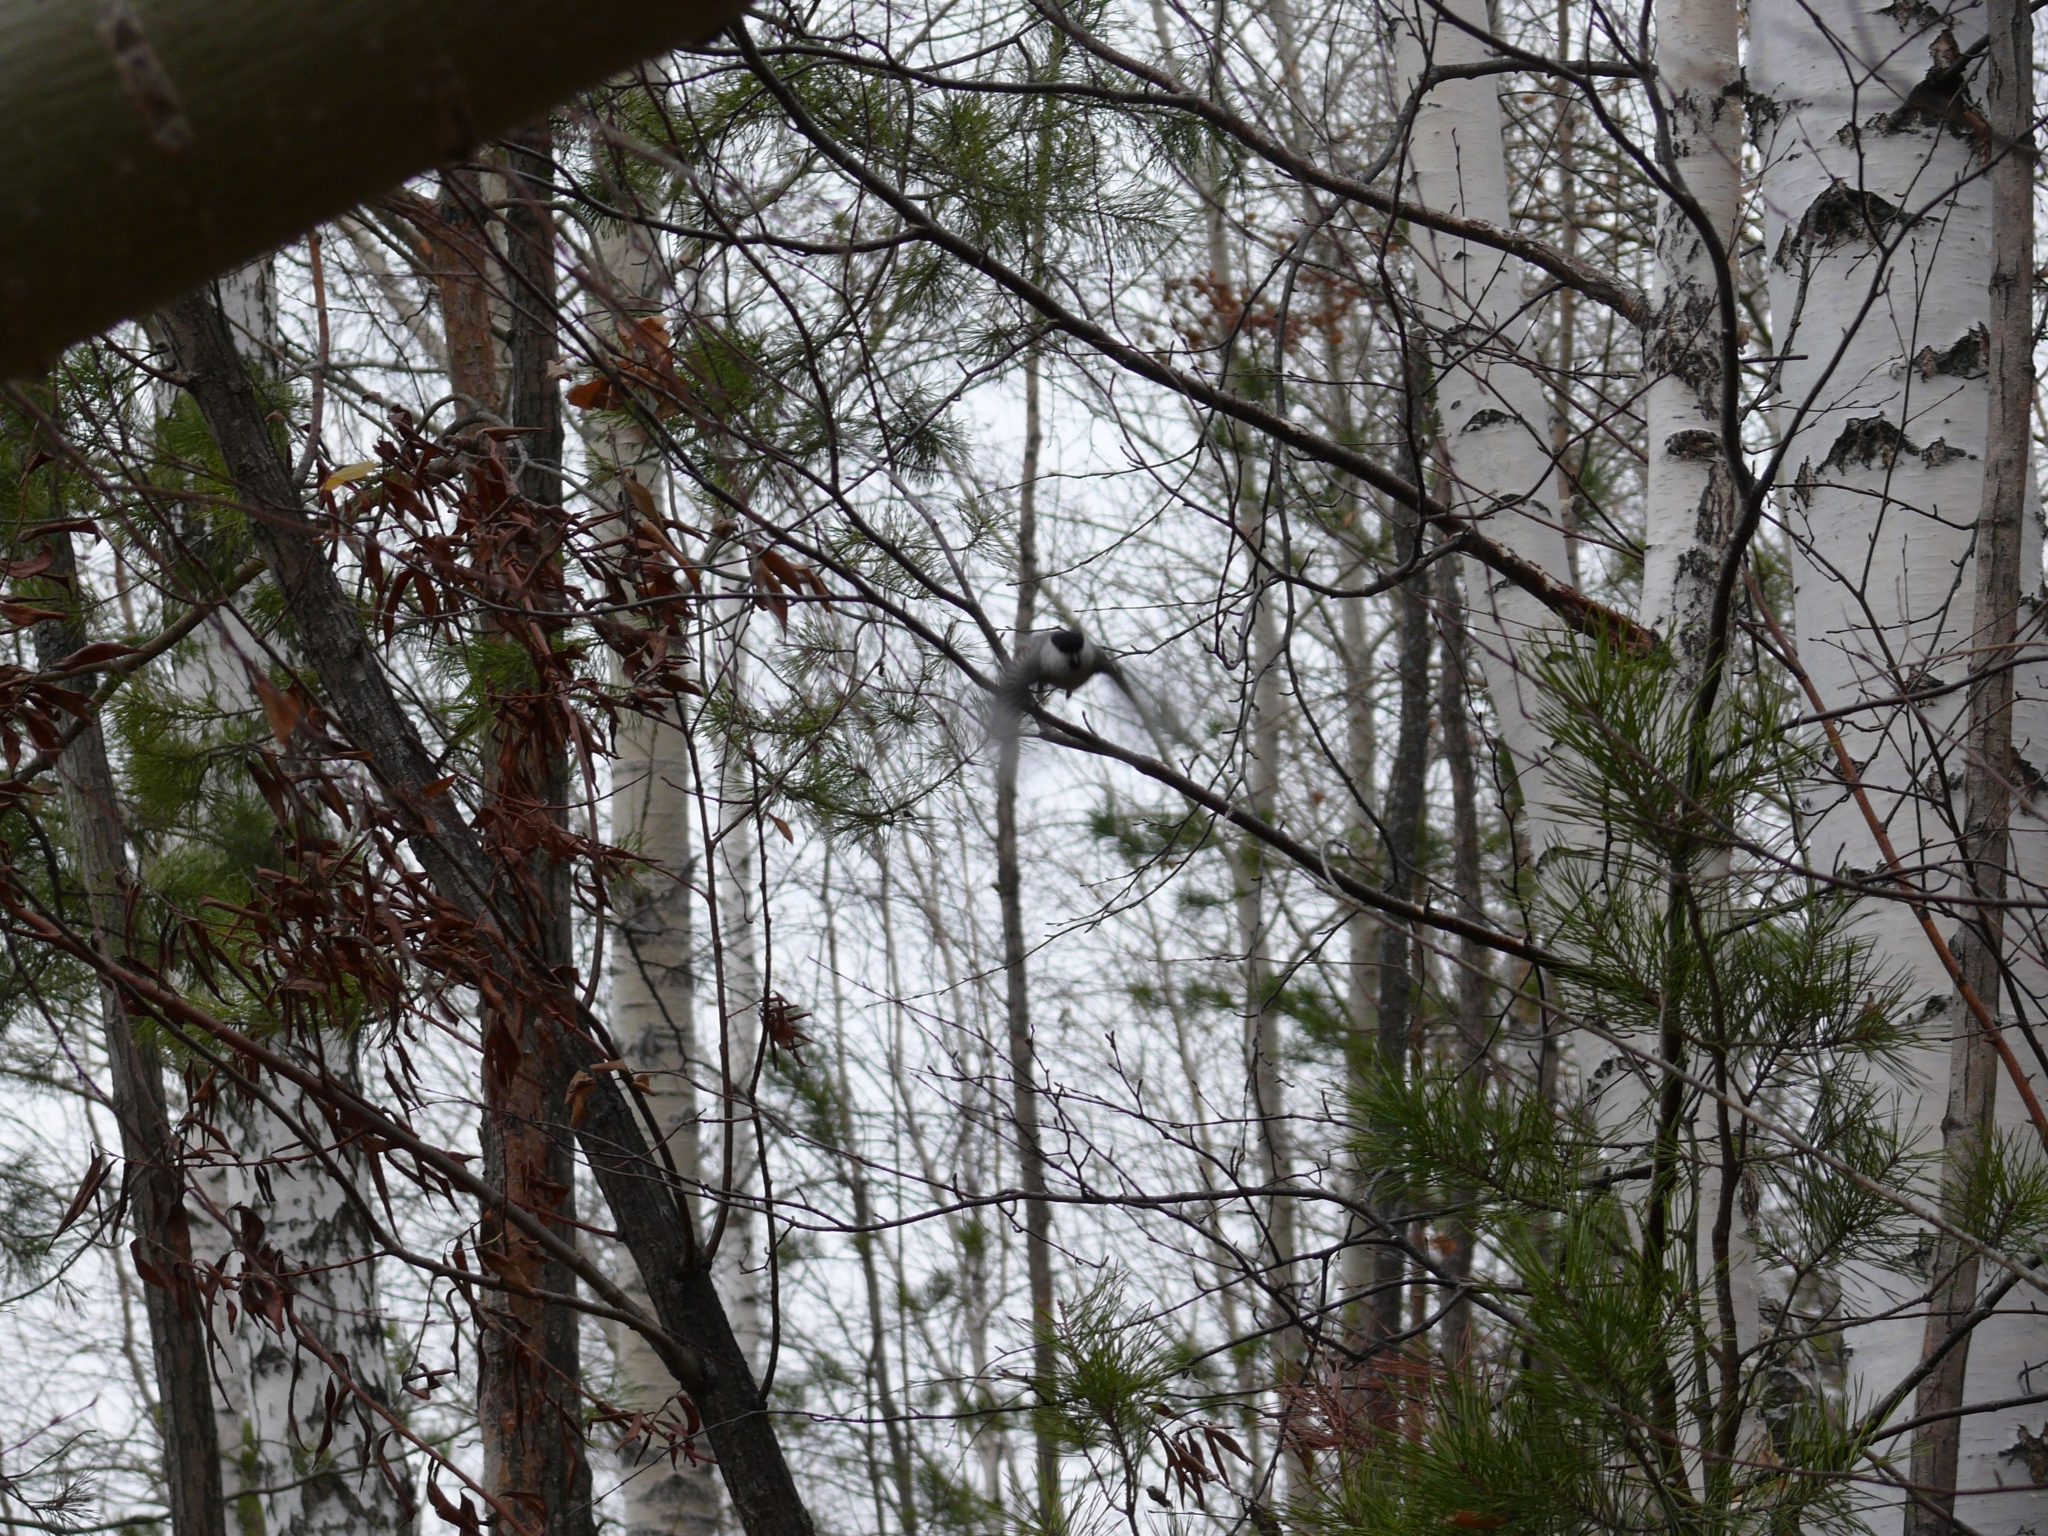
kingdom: Animalia
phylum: Chordata
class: Aves
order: Passeriformes
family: Paridae
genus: Poecile
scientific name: Poecile montanus
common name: Willow tit
